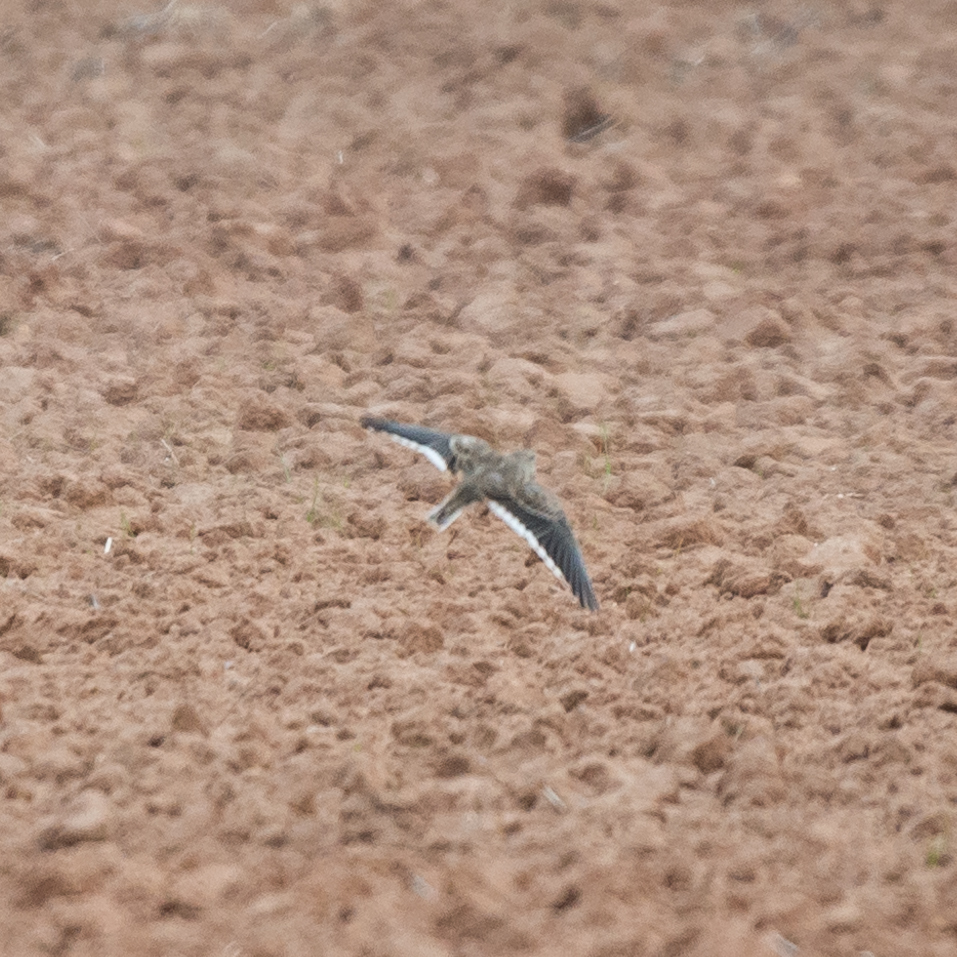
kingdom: Animalia
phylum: Chordata
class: Aves
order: Passeriformes
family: Alaudidae
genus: Alauda
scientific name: Alauda arvensis
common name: Eurasian skylark
